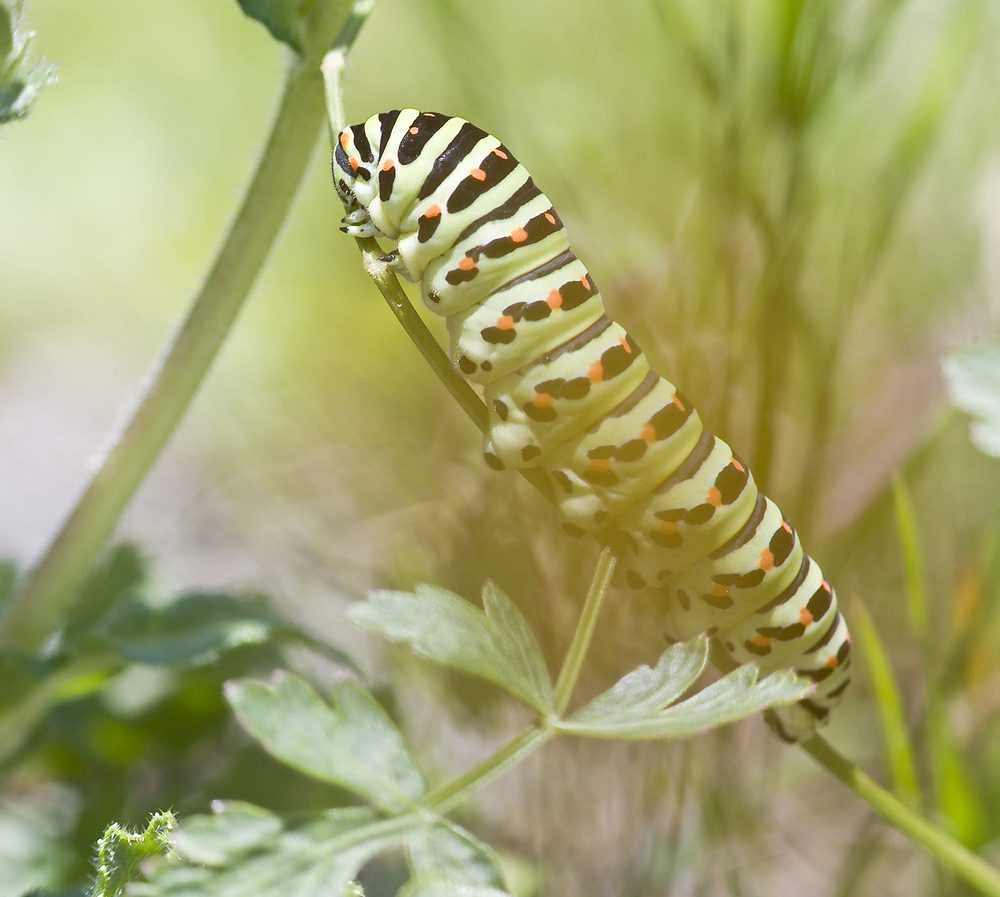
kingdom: Animalia
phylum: Arthropoda
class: Insecta
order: Lepidoptera
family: Papilionidae
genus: Papilio
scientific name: Papilio machaon
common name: Swallowtail
